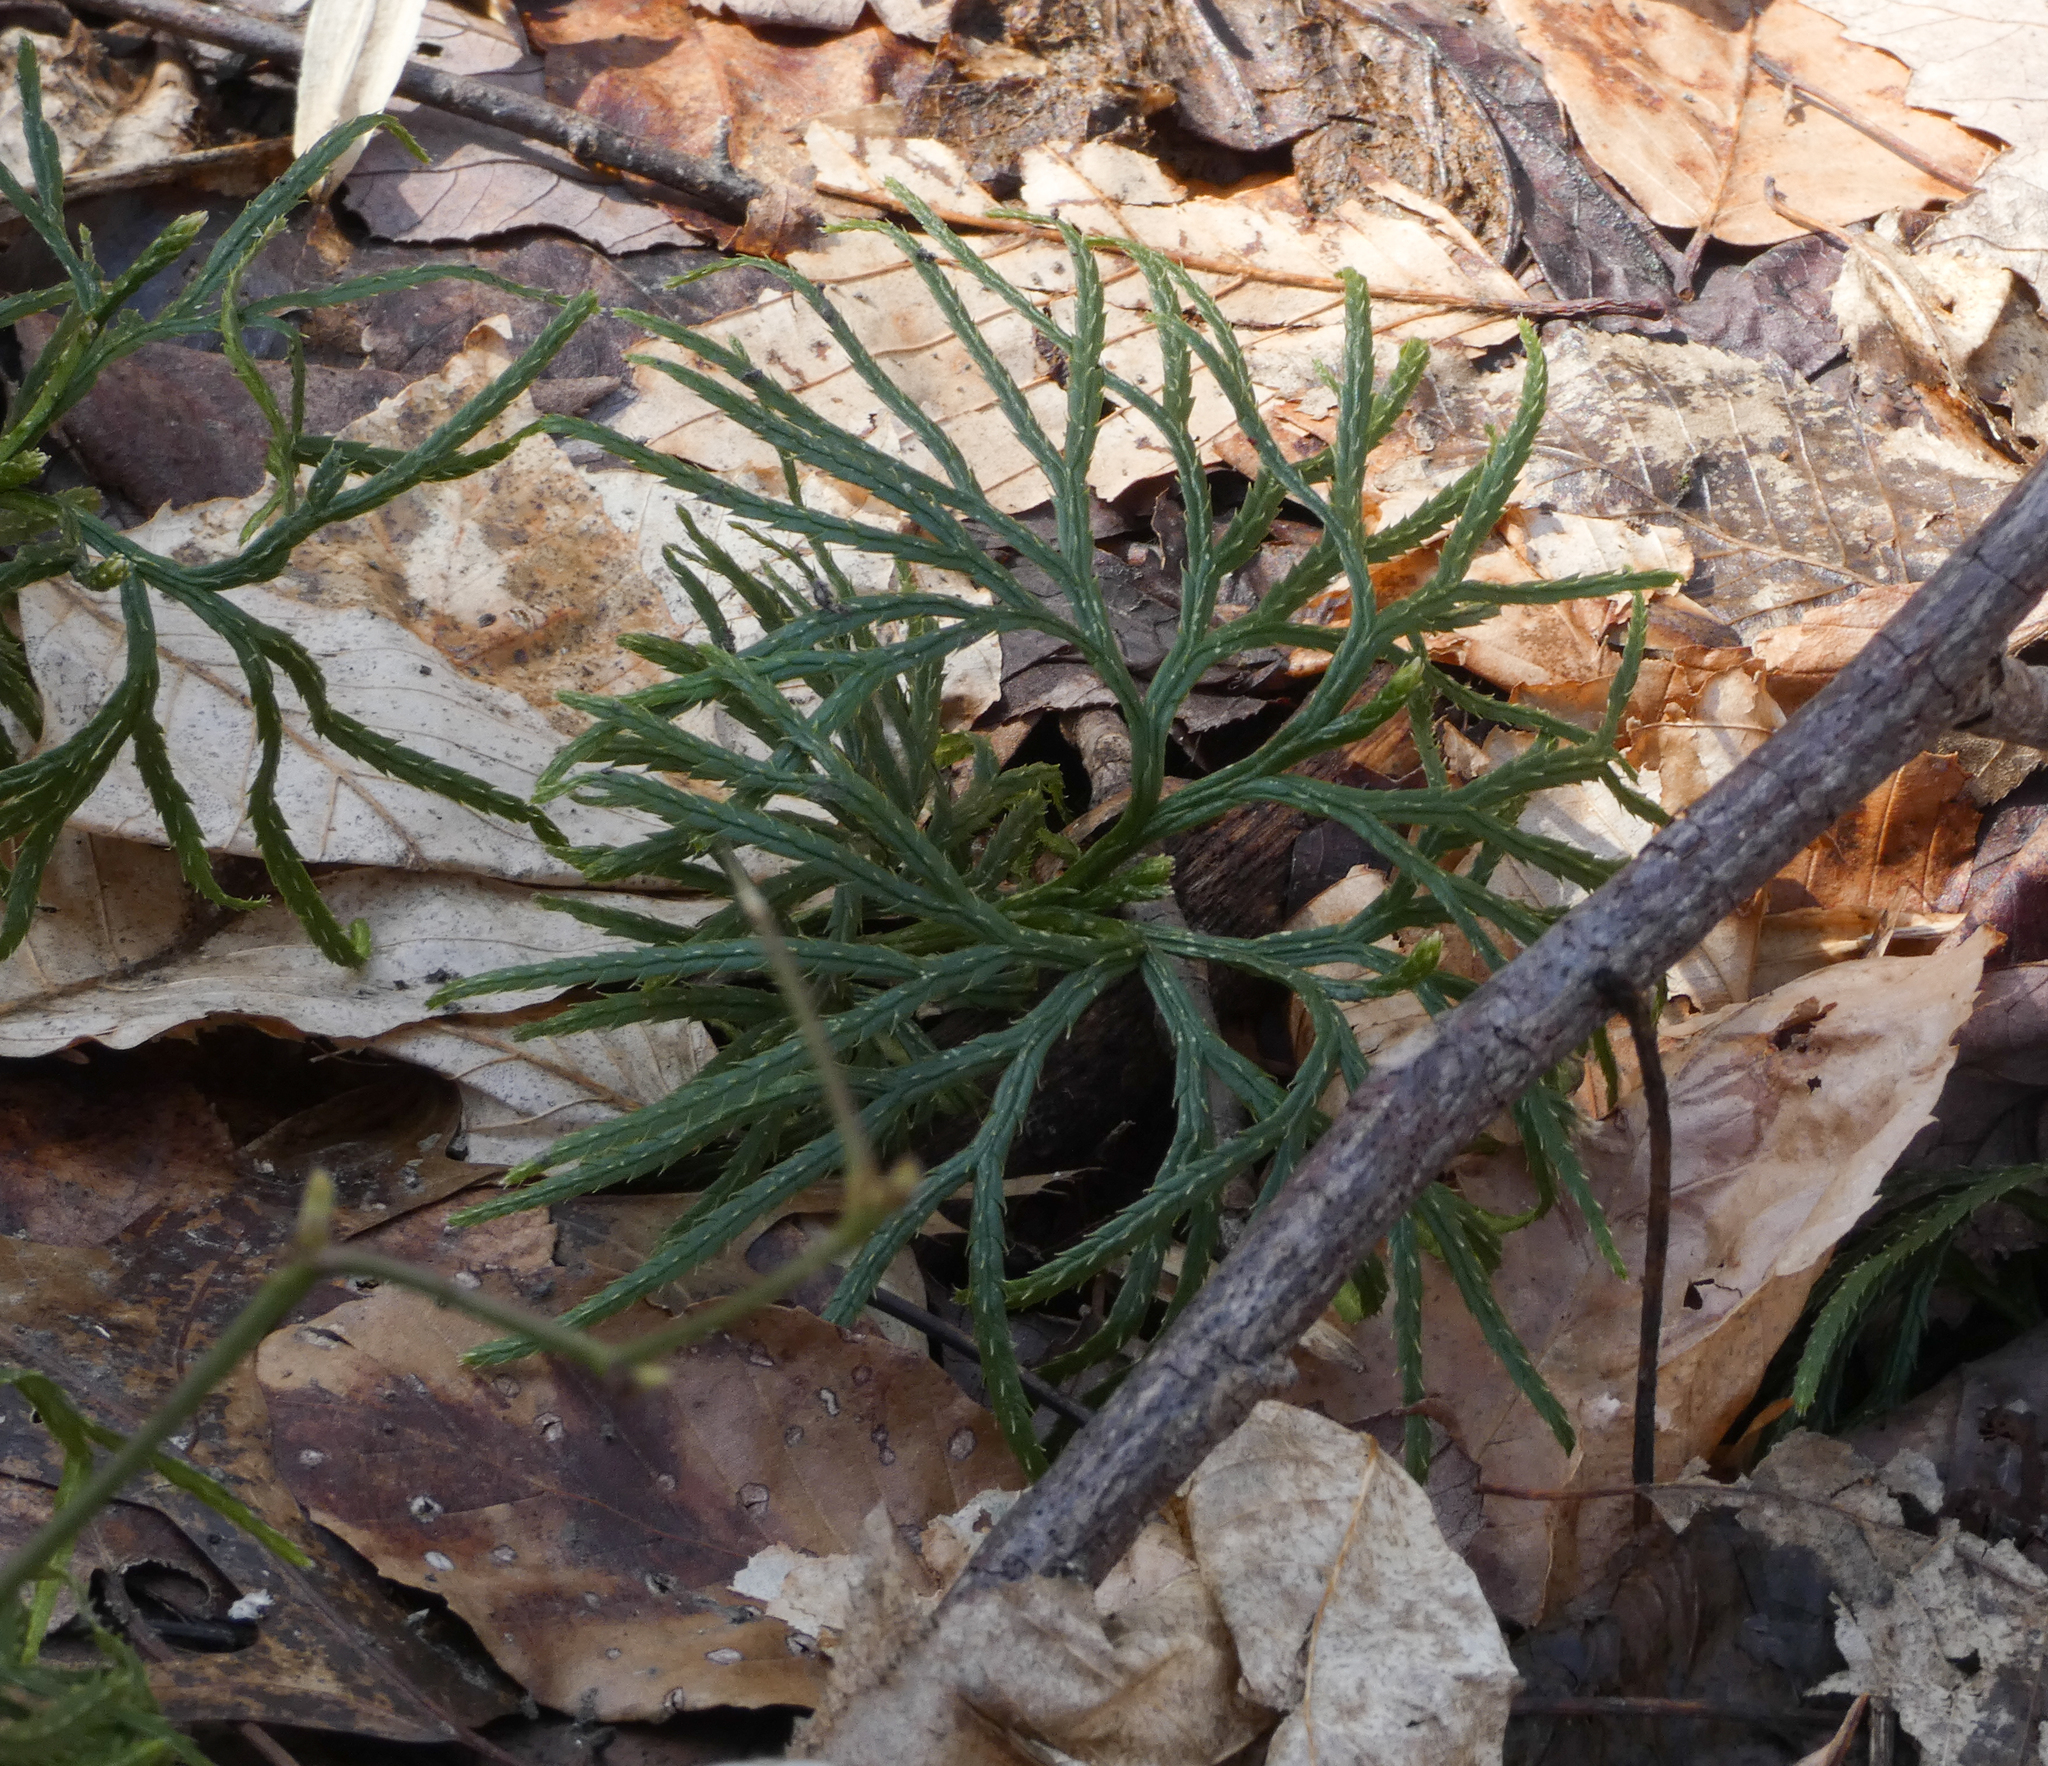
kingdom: Plantae
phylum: Tracheophyta
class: Lycopodiopsida
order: Lycopodiales
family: Lycopodiaceae
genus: Diphasiastrum
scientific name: Diphasiastrum digitatum
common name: Southern running-pine
